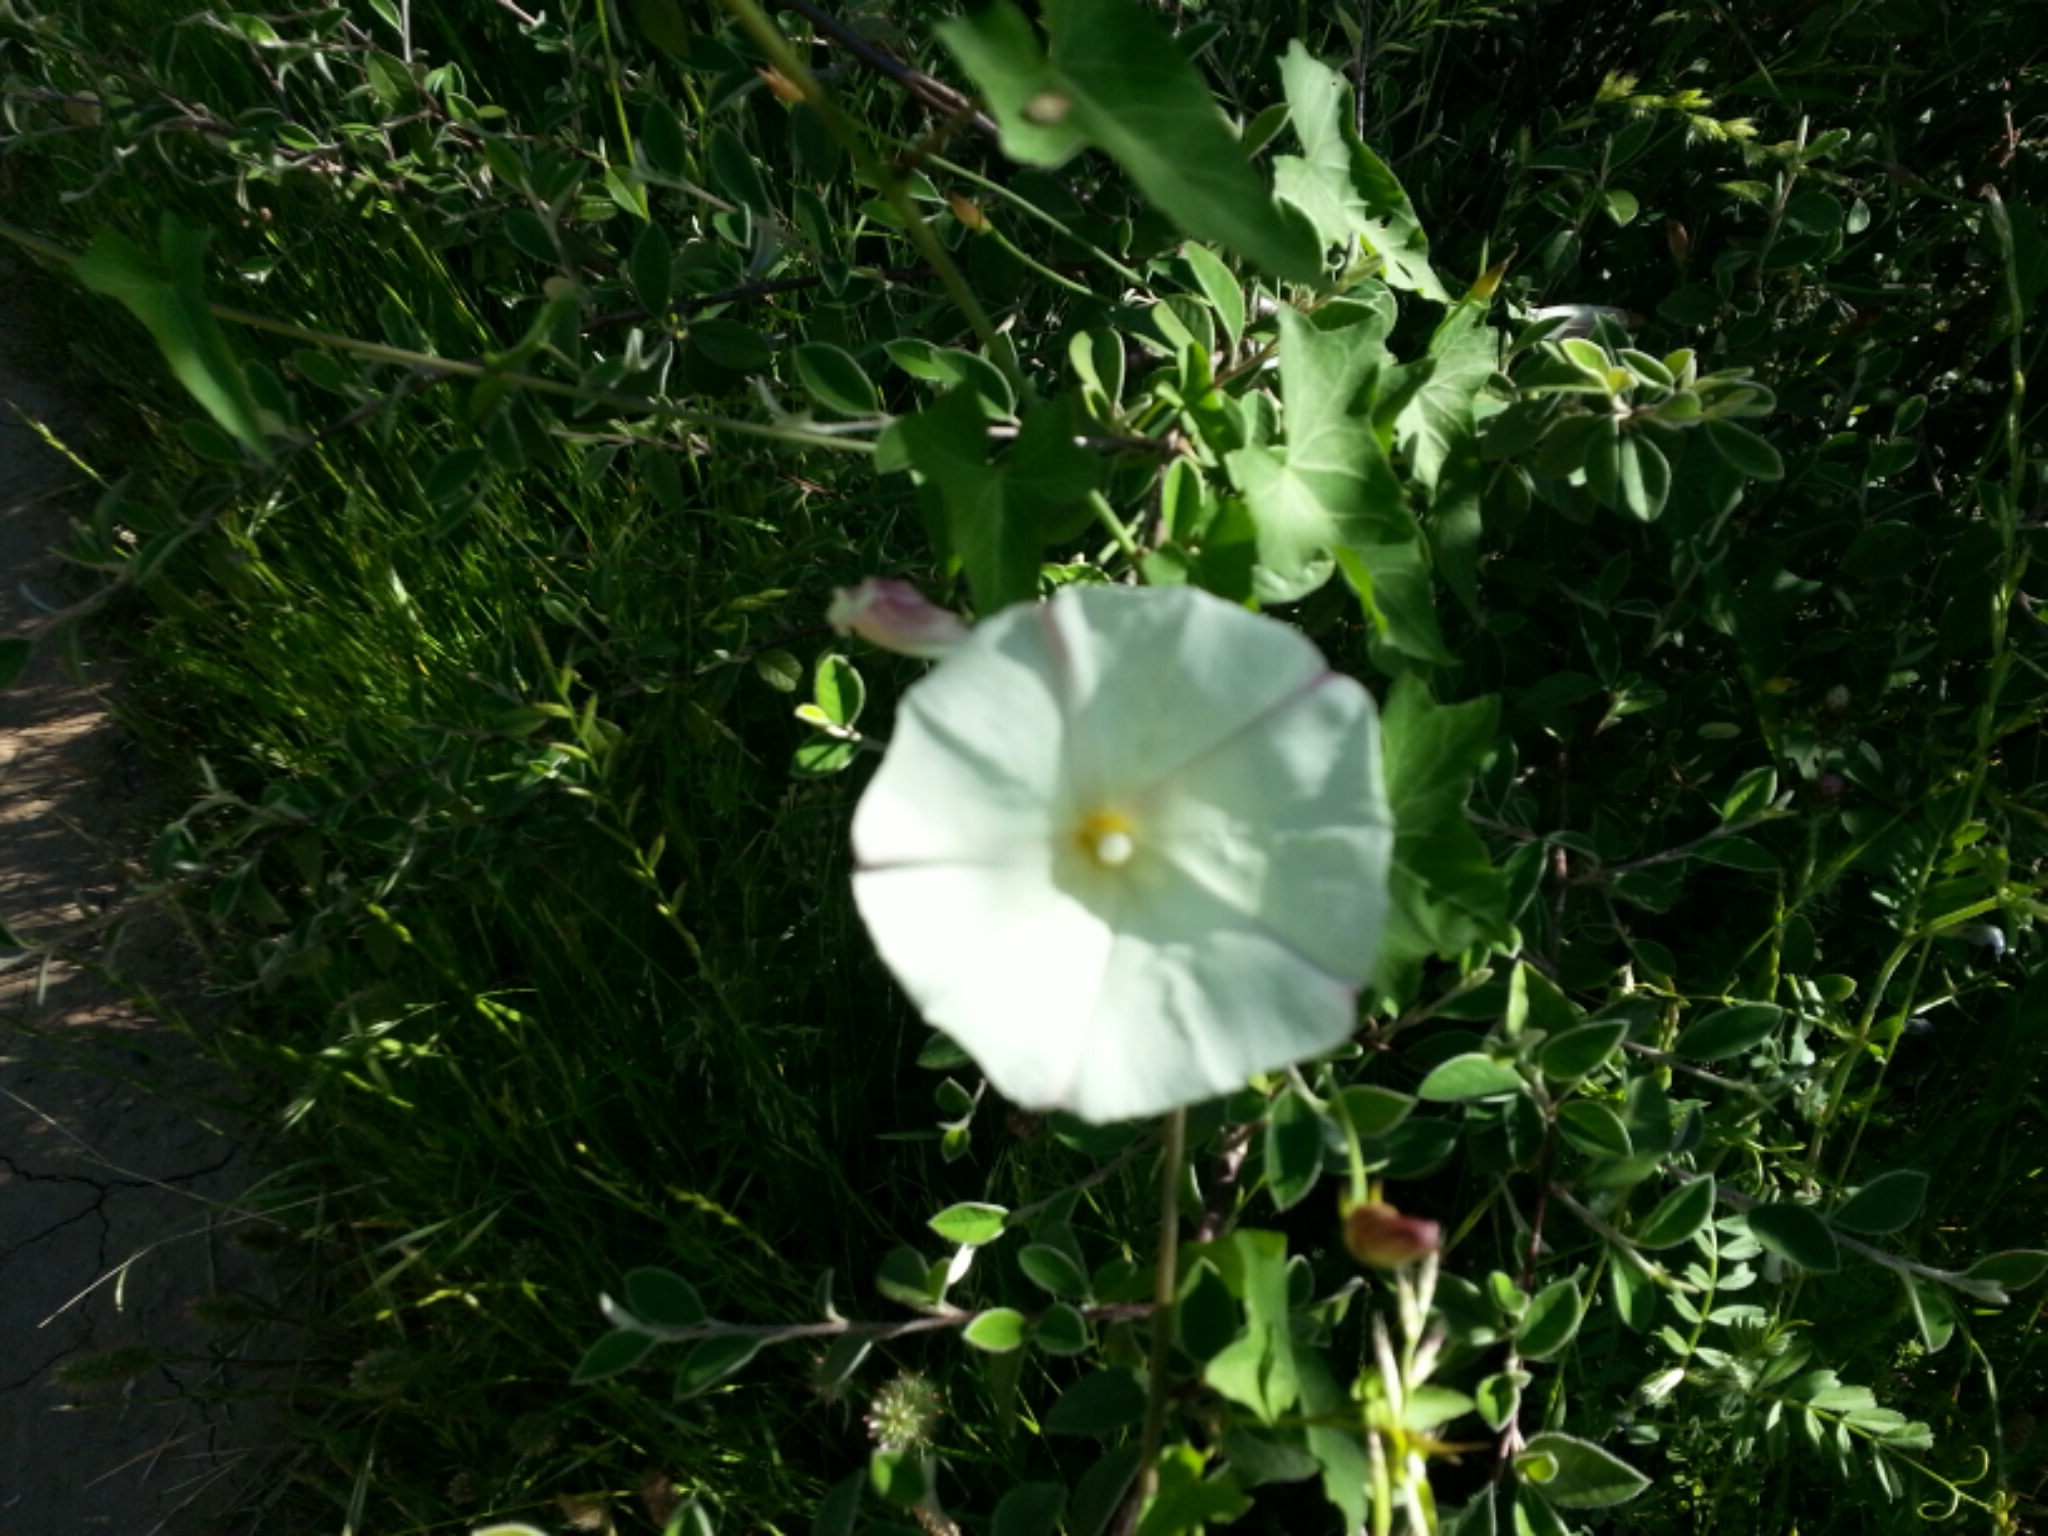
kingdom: Plantae
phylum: Tracheophyta
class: Magnoliopsida
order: Solanales
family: Convolvulaceae
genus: Calystegia
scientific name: Calystegia purpurata
